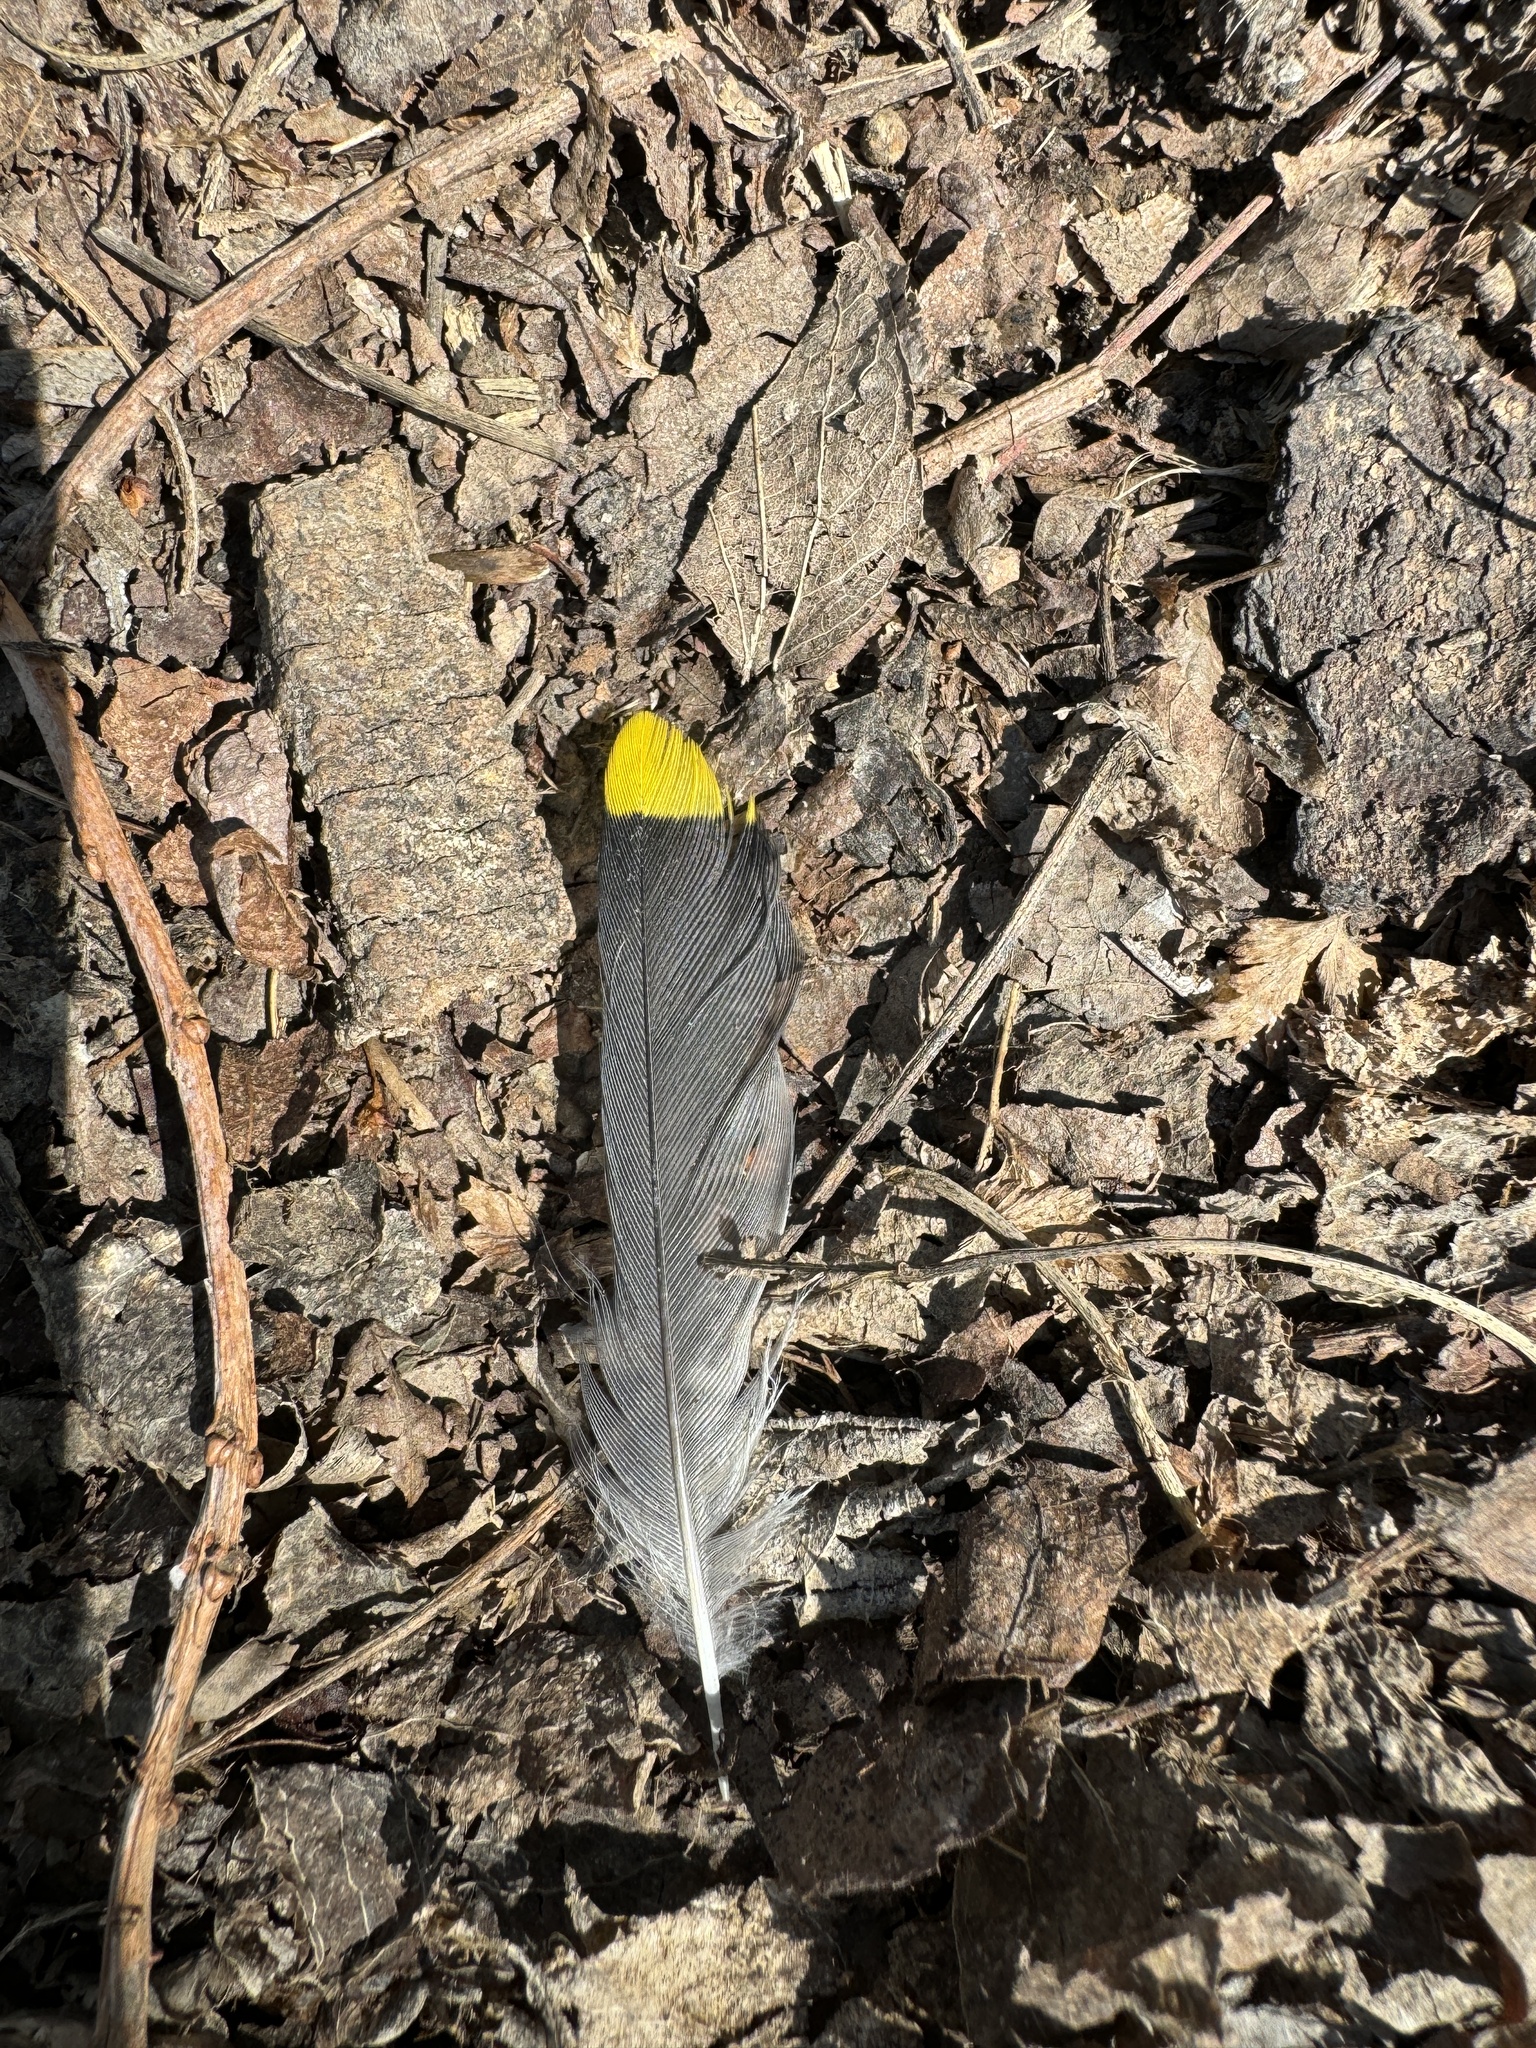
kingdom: Animalia
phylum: Chordata
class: Aves
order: Passeriformes
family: Bombycillidae
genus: Bombycilla
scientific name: Bombycilla cedrorum
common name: Cedar waxwing
